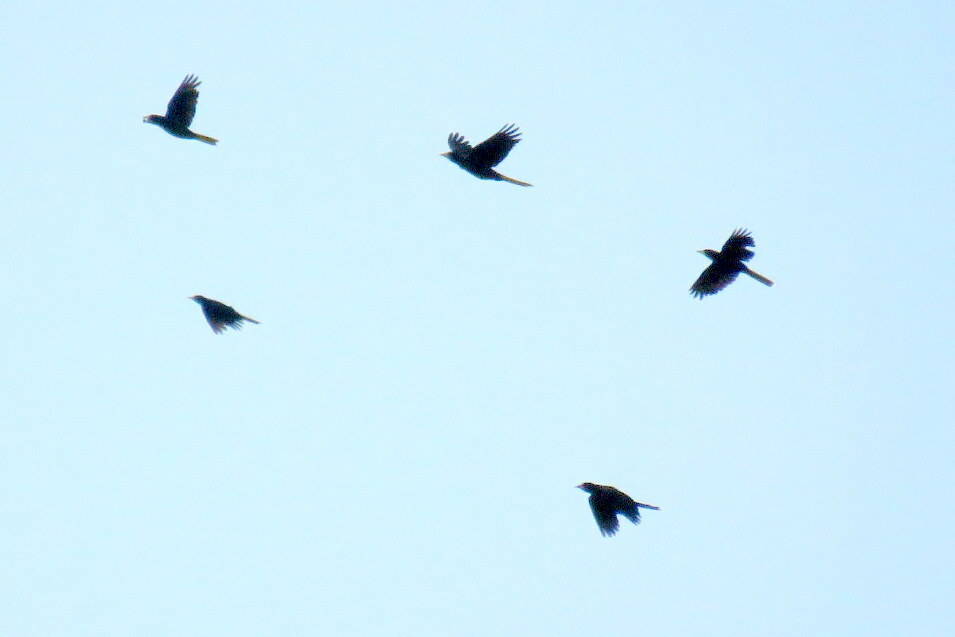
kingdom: Animalia
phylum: Chordata
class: Aves
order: Passeriformes
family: Icteridae
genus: Psarocolius
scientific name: Psarocolius decumanus
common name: Crested oropendola
